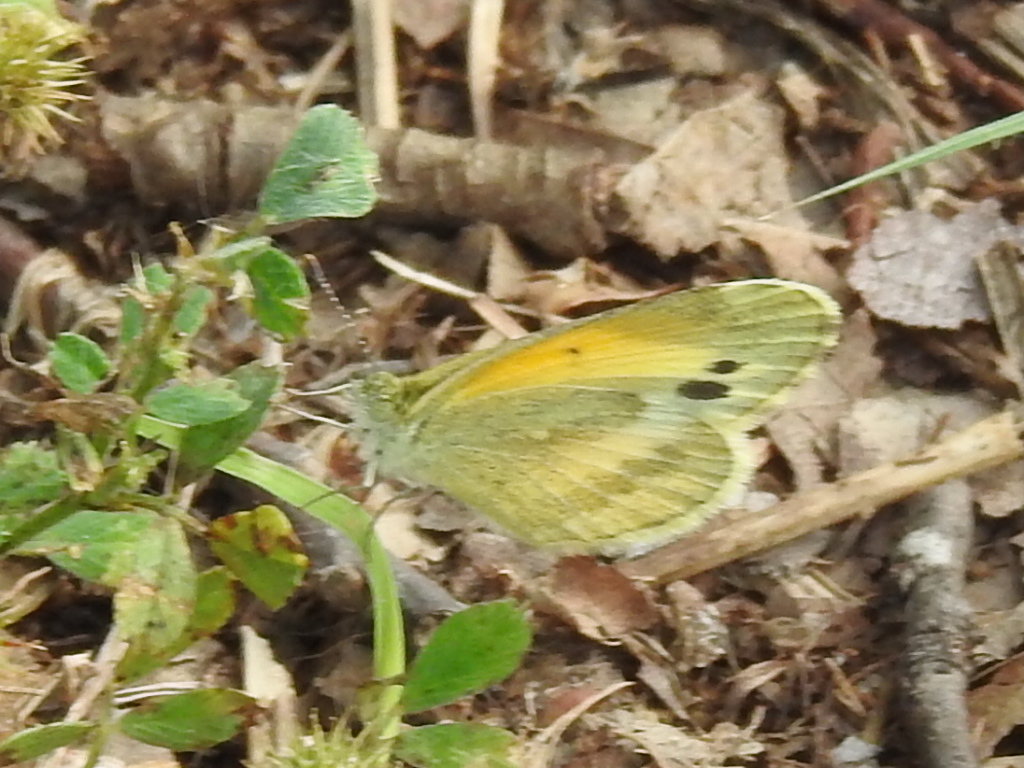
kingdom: Animalia
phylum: Arthropoda
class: Insecta
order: Lepidoptera
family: Pieridae
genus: Nathalis
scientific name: Nathalis iole
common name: Dainty sulphur
